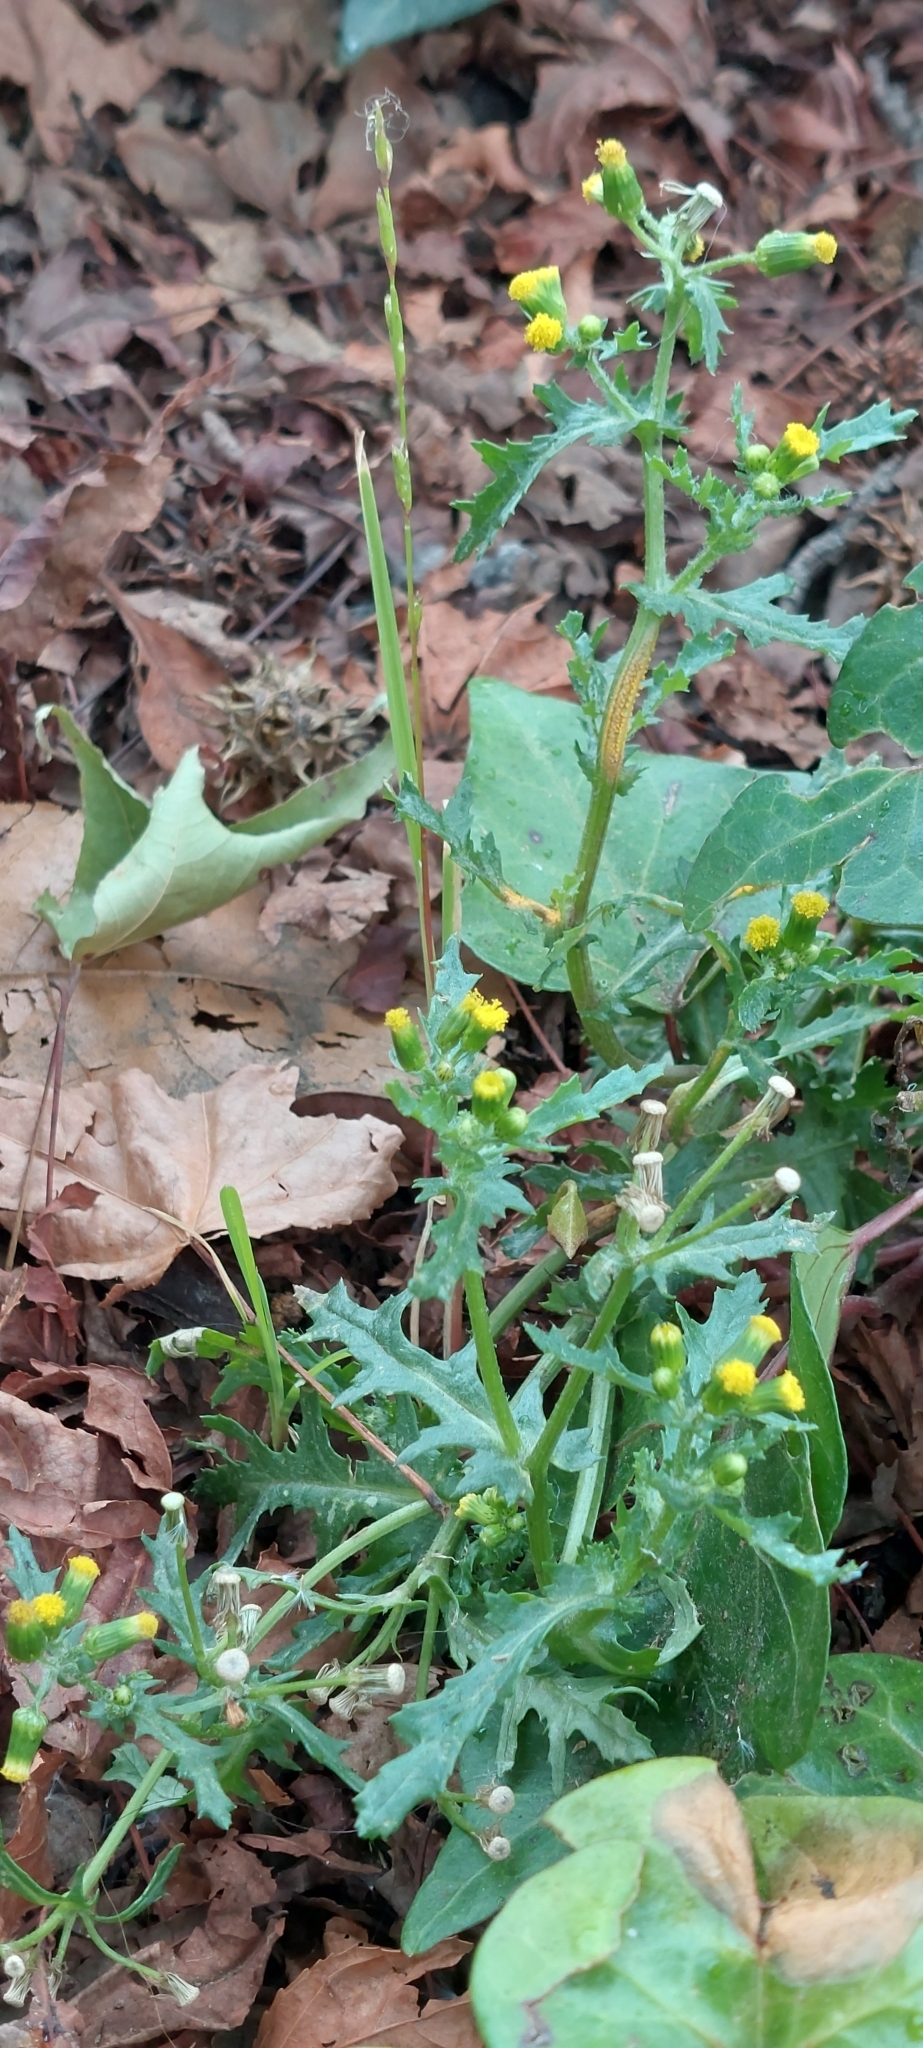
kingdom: Plantae
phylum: Tracheophyta
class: Magnoliopsida
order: Asterales
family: Asteraceae
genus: Senecio
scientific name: Senecio vulgaris
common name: Old-man-in-the-spring
